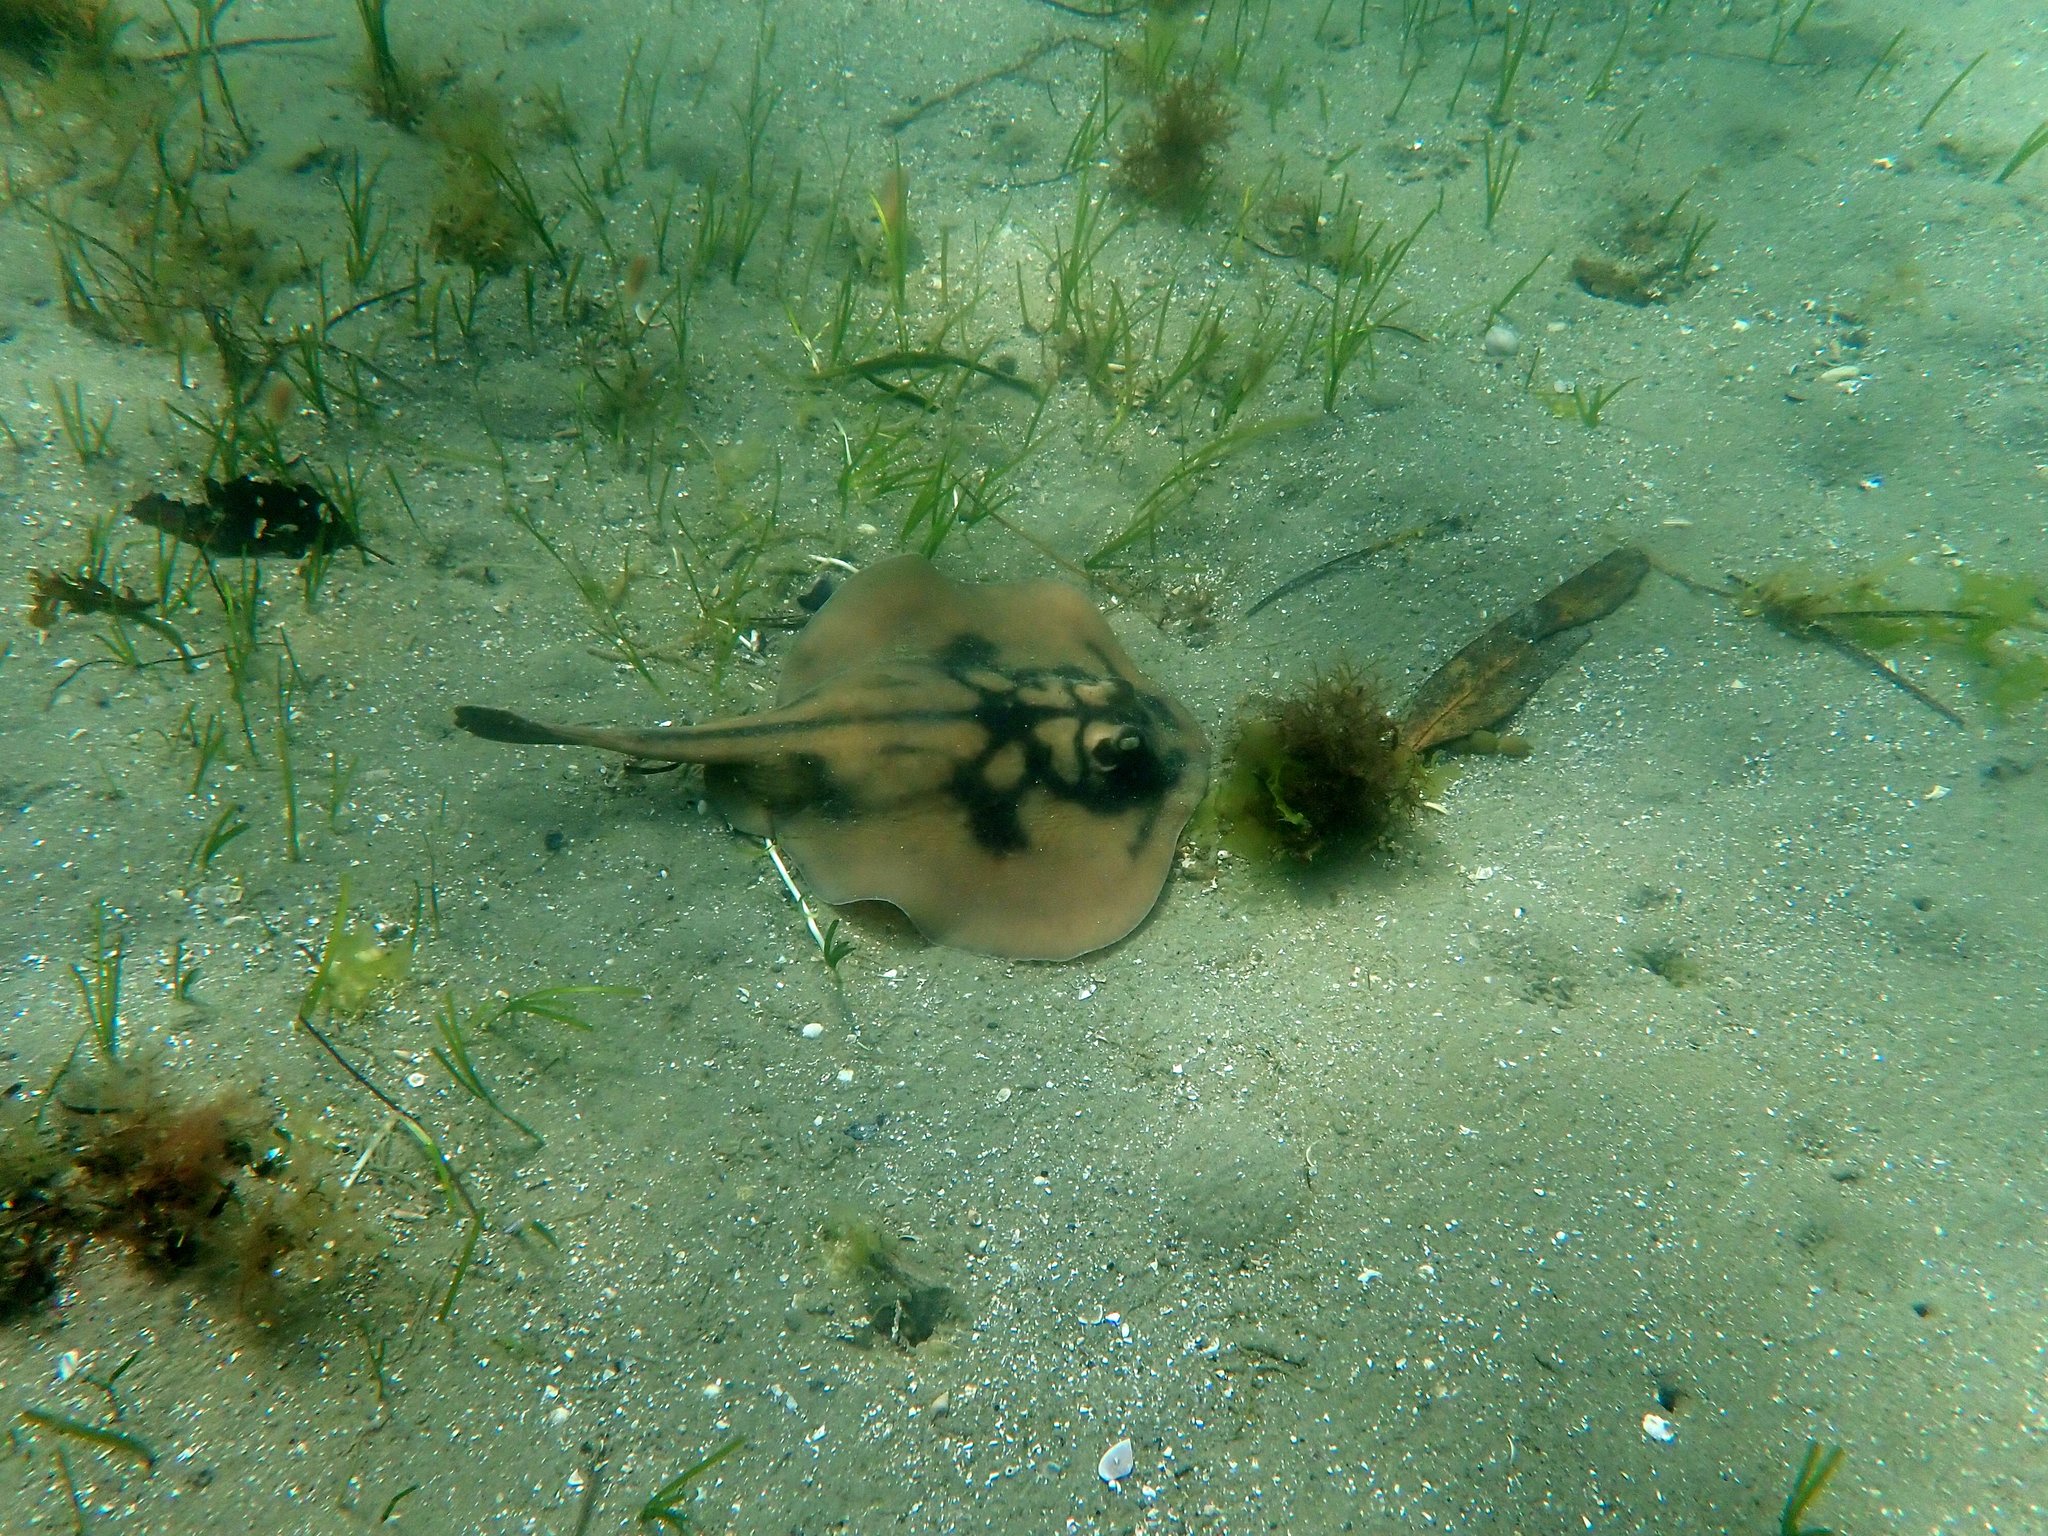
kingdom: Animalia
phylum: Chordata
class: Elasmobranchii
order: Myliobatiformes
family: Urolophidae
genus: Urolophus
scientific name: Urolophus cruciatus
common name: Banded stingaree
